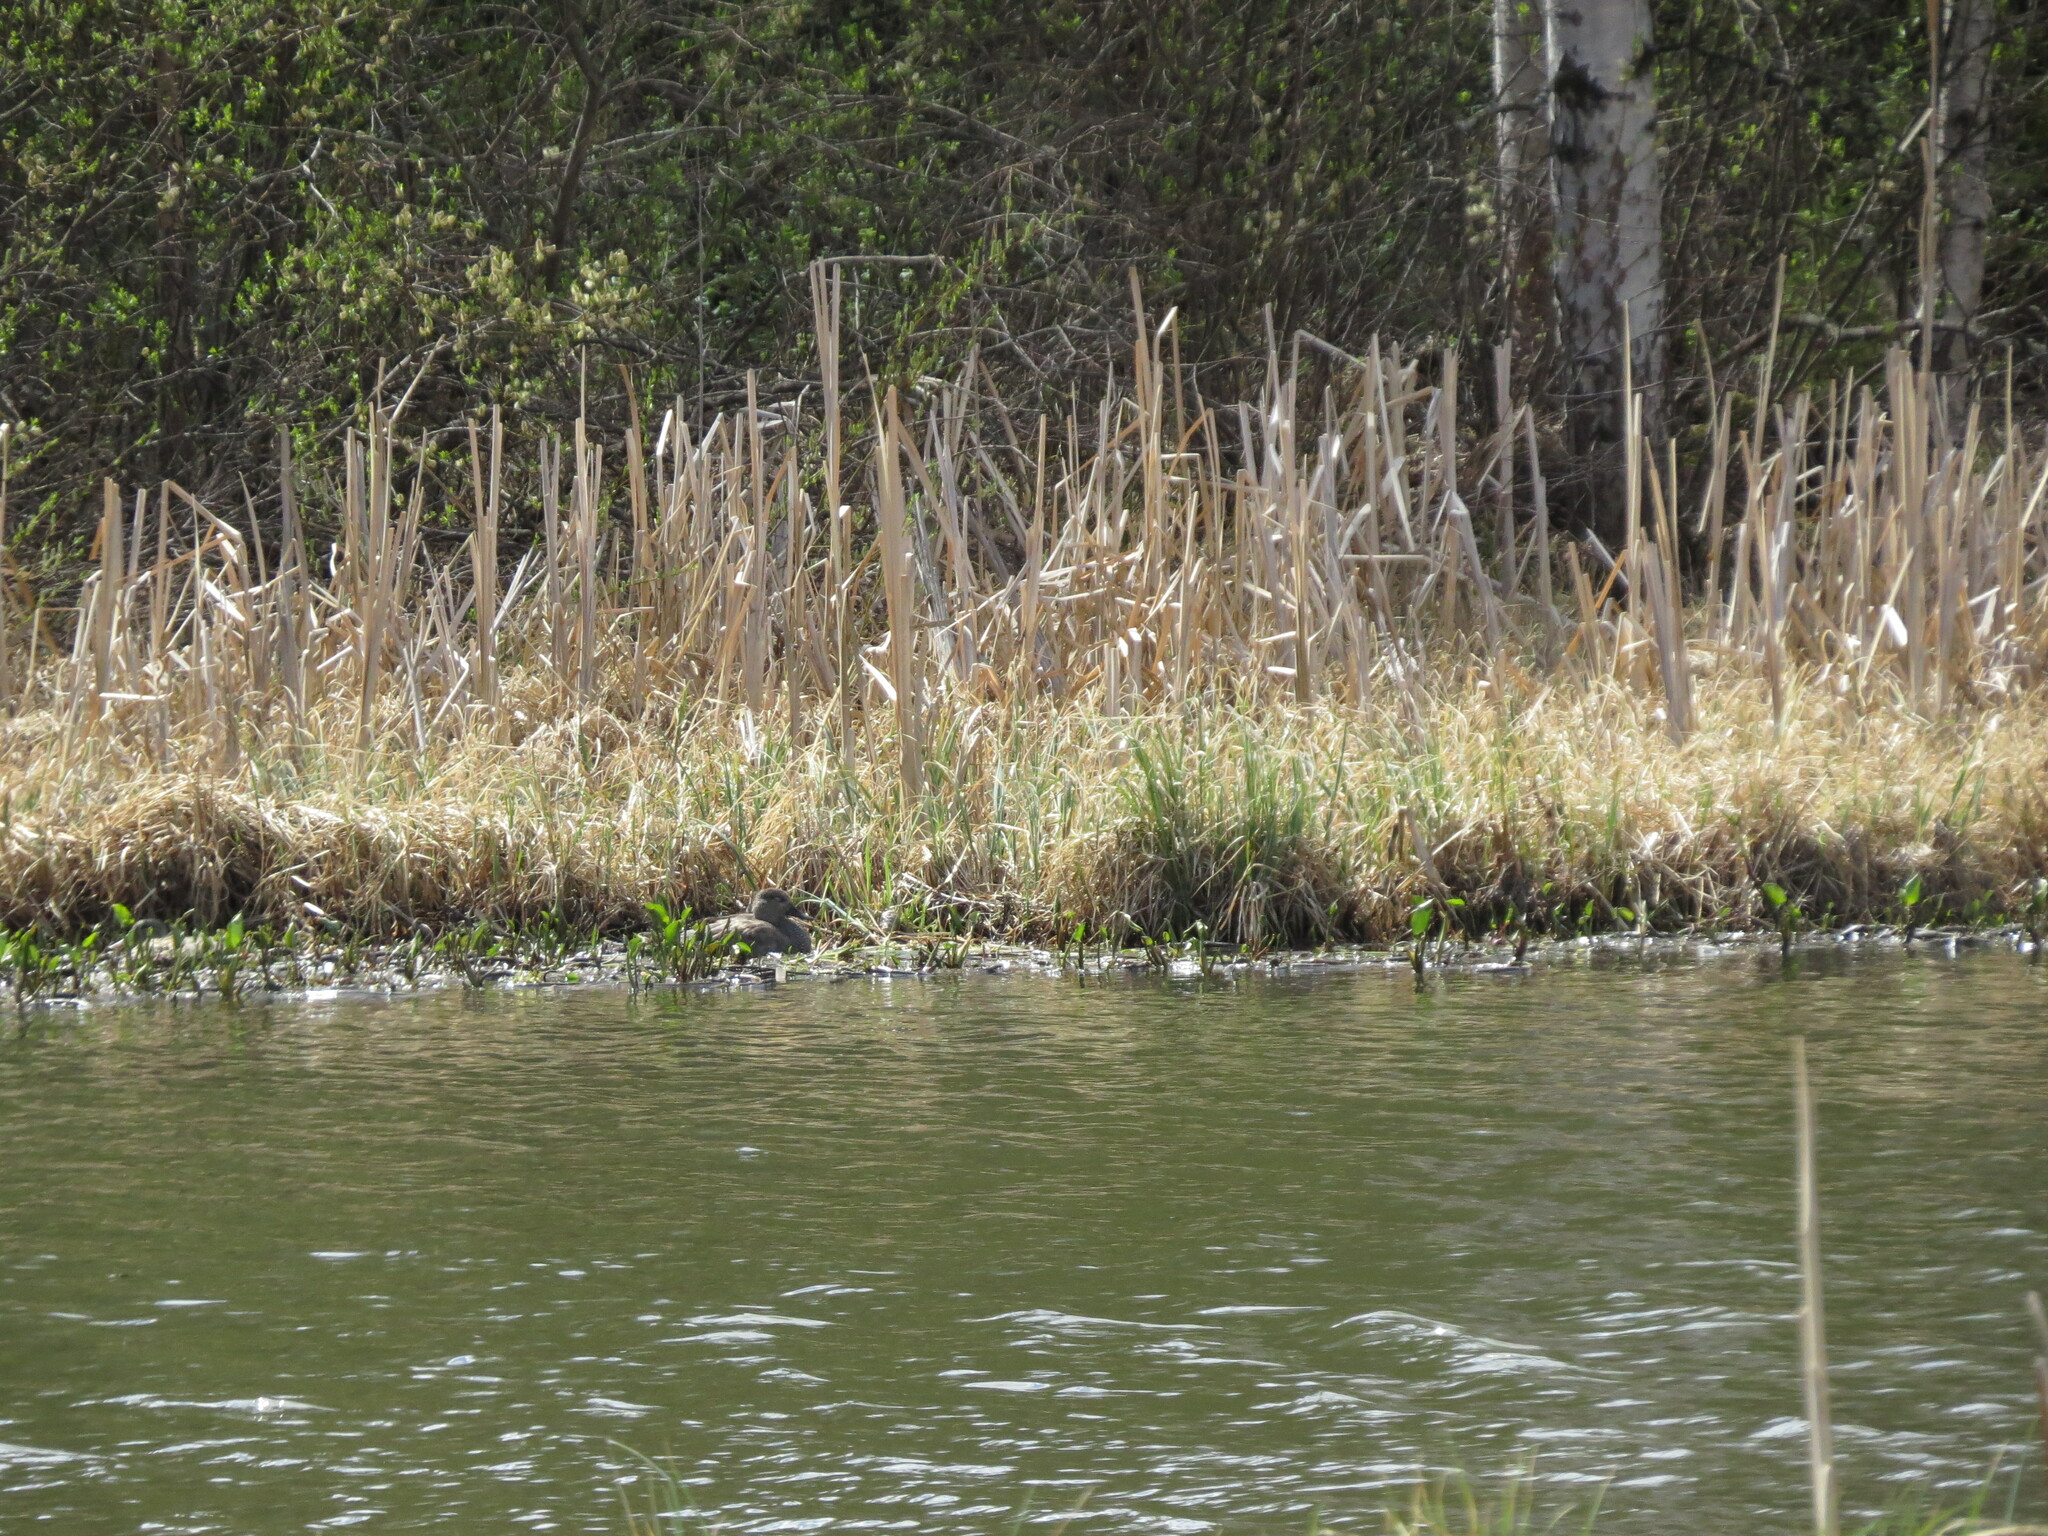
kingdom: Animalia
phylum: Chordata
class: Aves
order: Anseriformes
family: Anatidae
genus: Mareca
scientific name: Mareca strepera
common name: Gadwall
